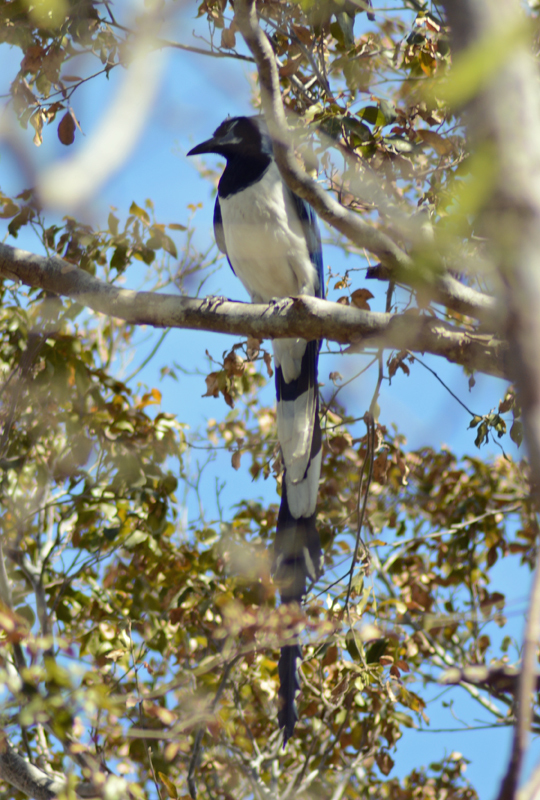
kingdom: Animalia
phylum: Chordata
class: Aves
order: Passeriformes
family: Corvidae
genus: Calocitta
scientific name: Calocitta colliei
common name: Black-throated magpie-jay
